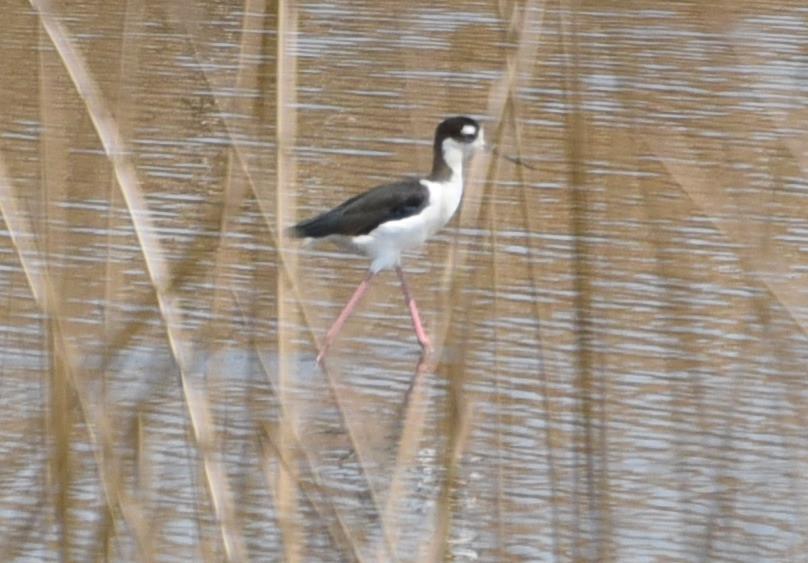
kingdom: Animalia
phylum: Chordata
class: Aves
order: Charadriiformes
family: Recurvirostridae
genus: Himantopus
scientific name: Himantopus mexicanus
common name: Black-necked stilt
